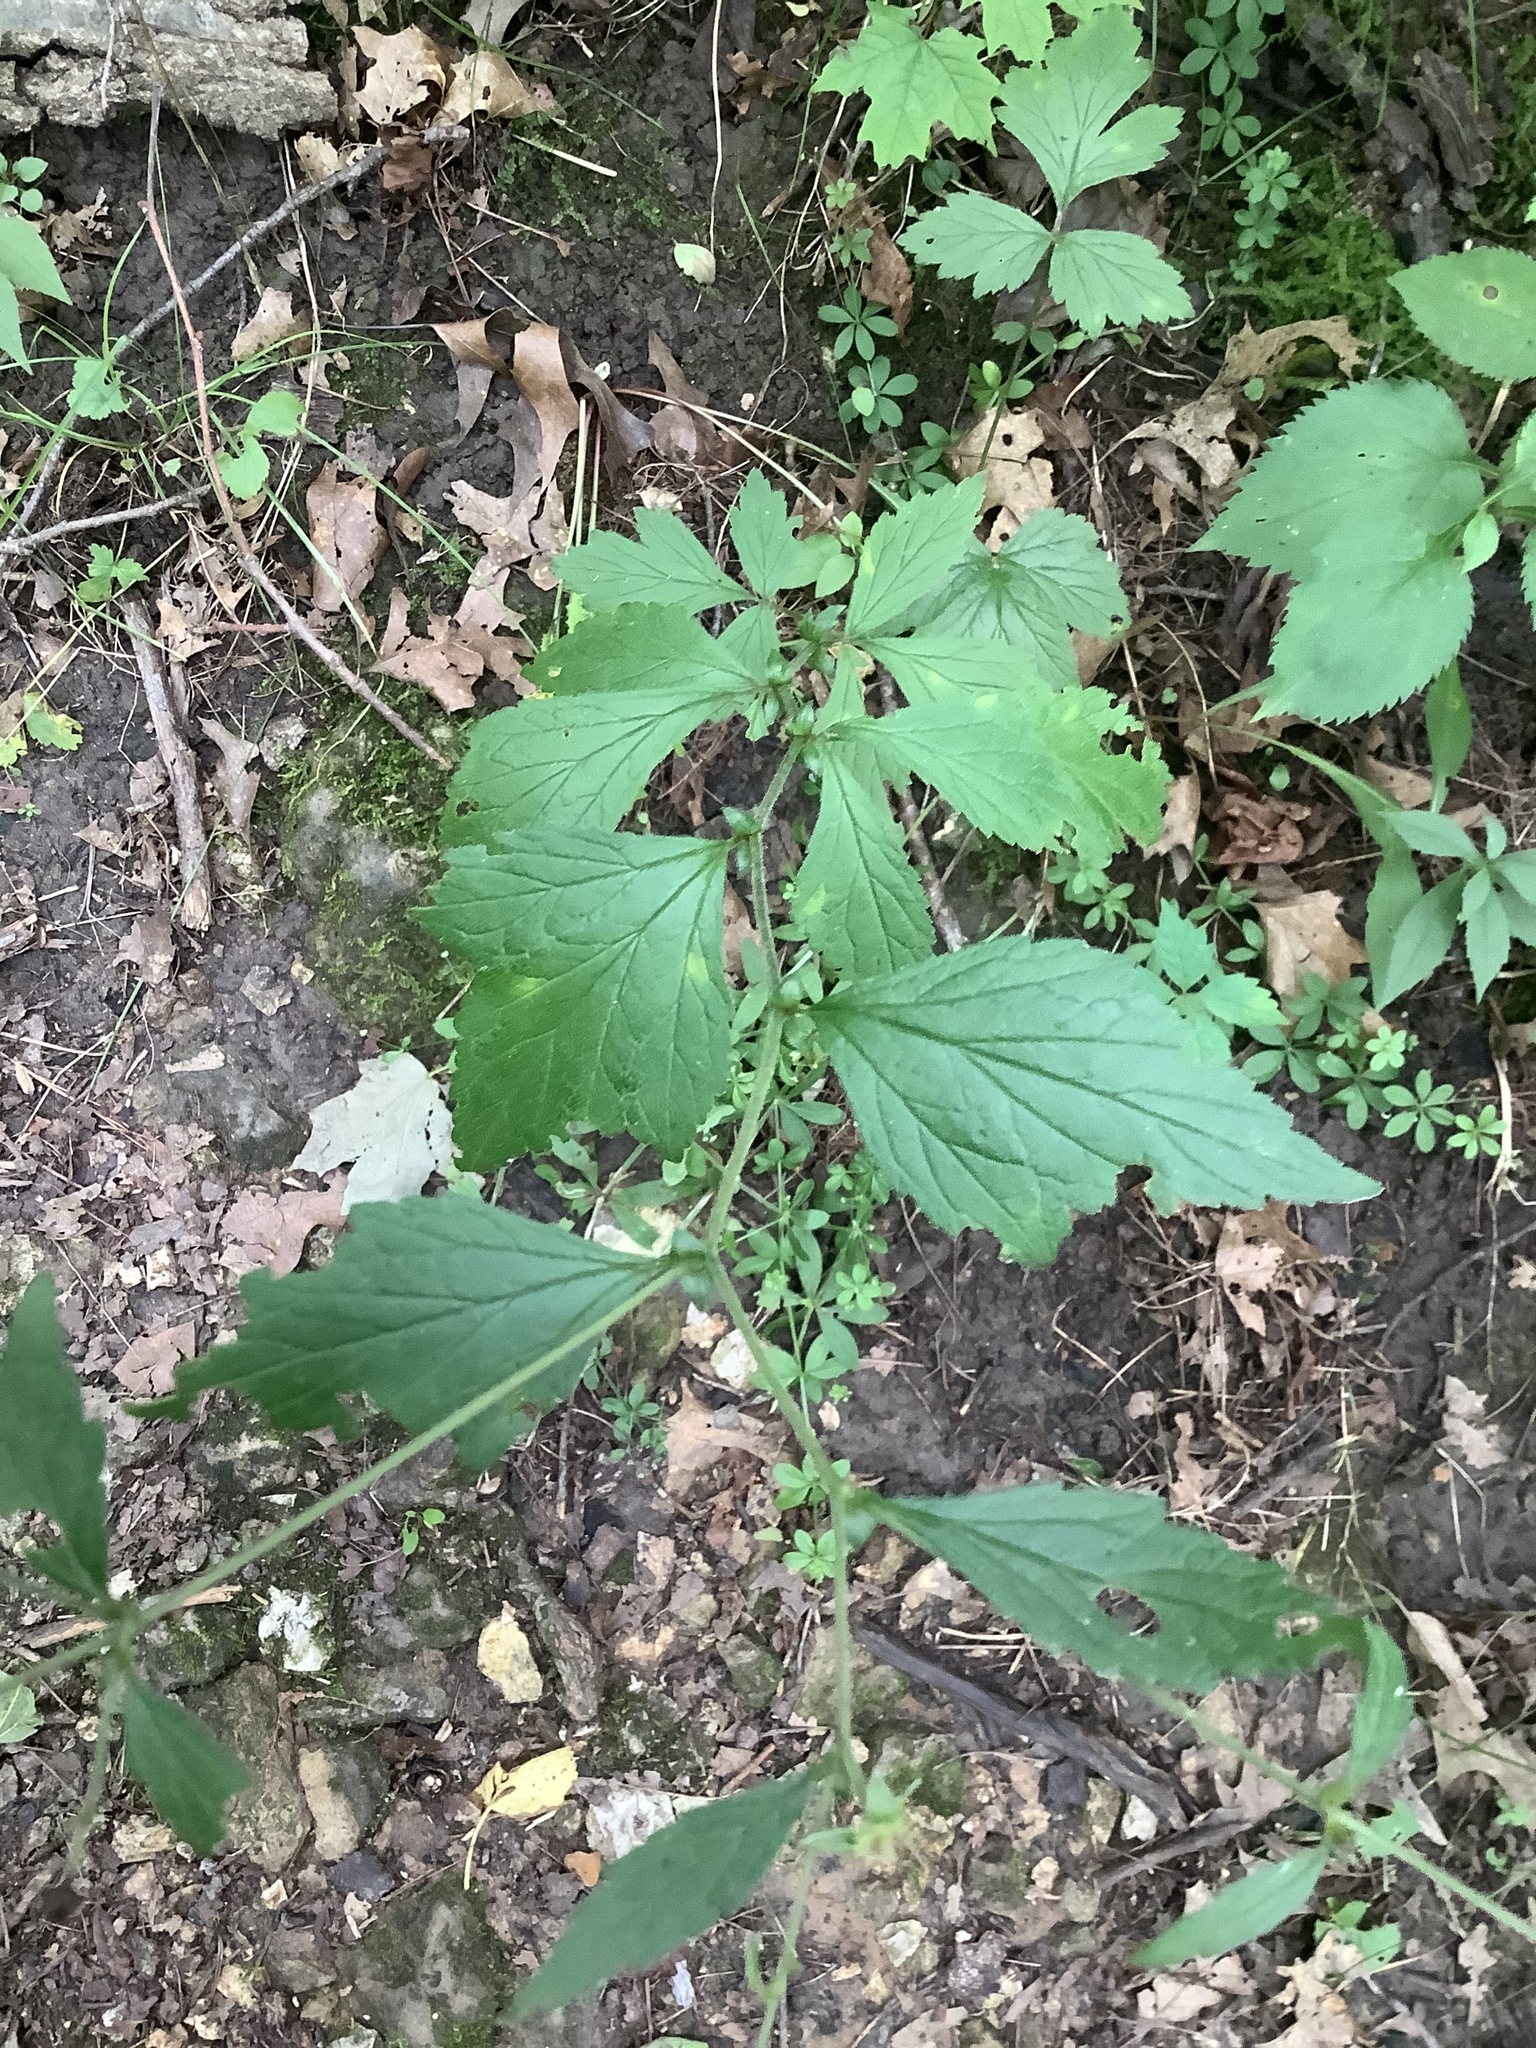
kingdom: Plantae
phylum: Tracheophyta
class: Magnoliopsida
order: Rosales
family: Rosaceae
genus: Geum
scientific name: Geum canadense
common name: White avens
